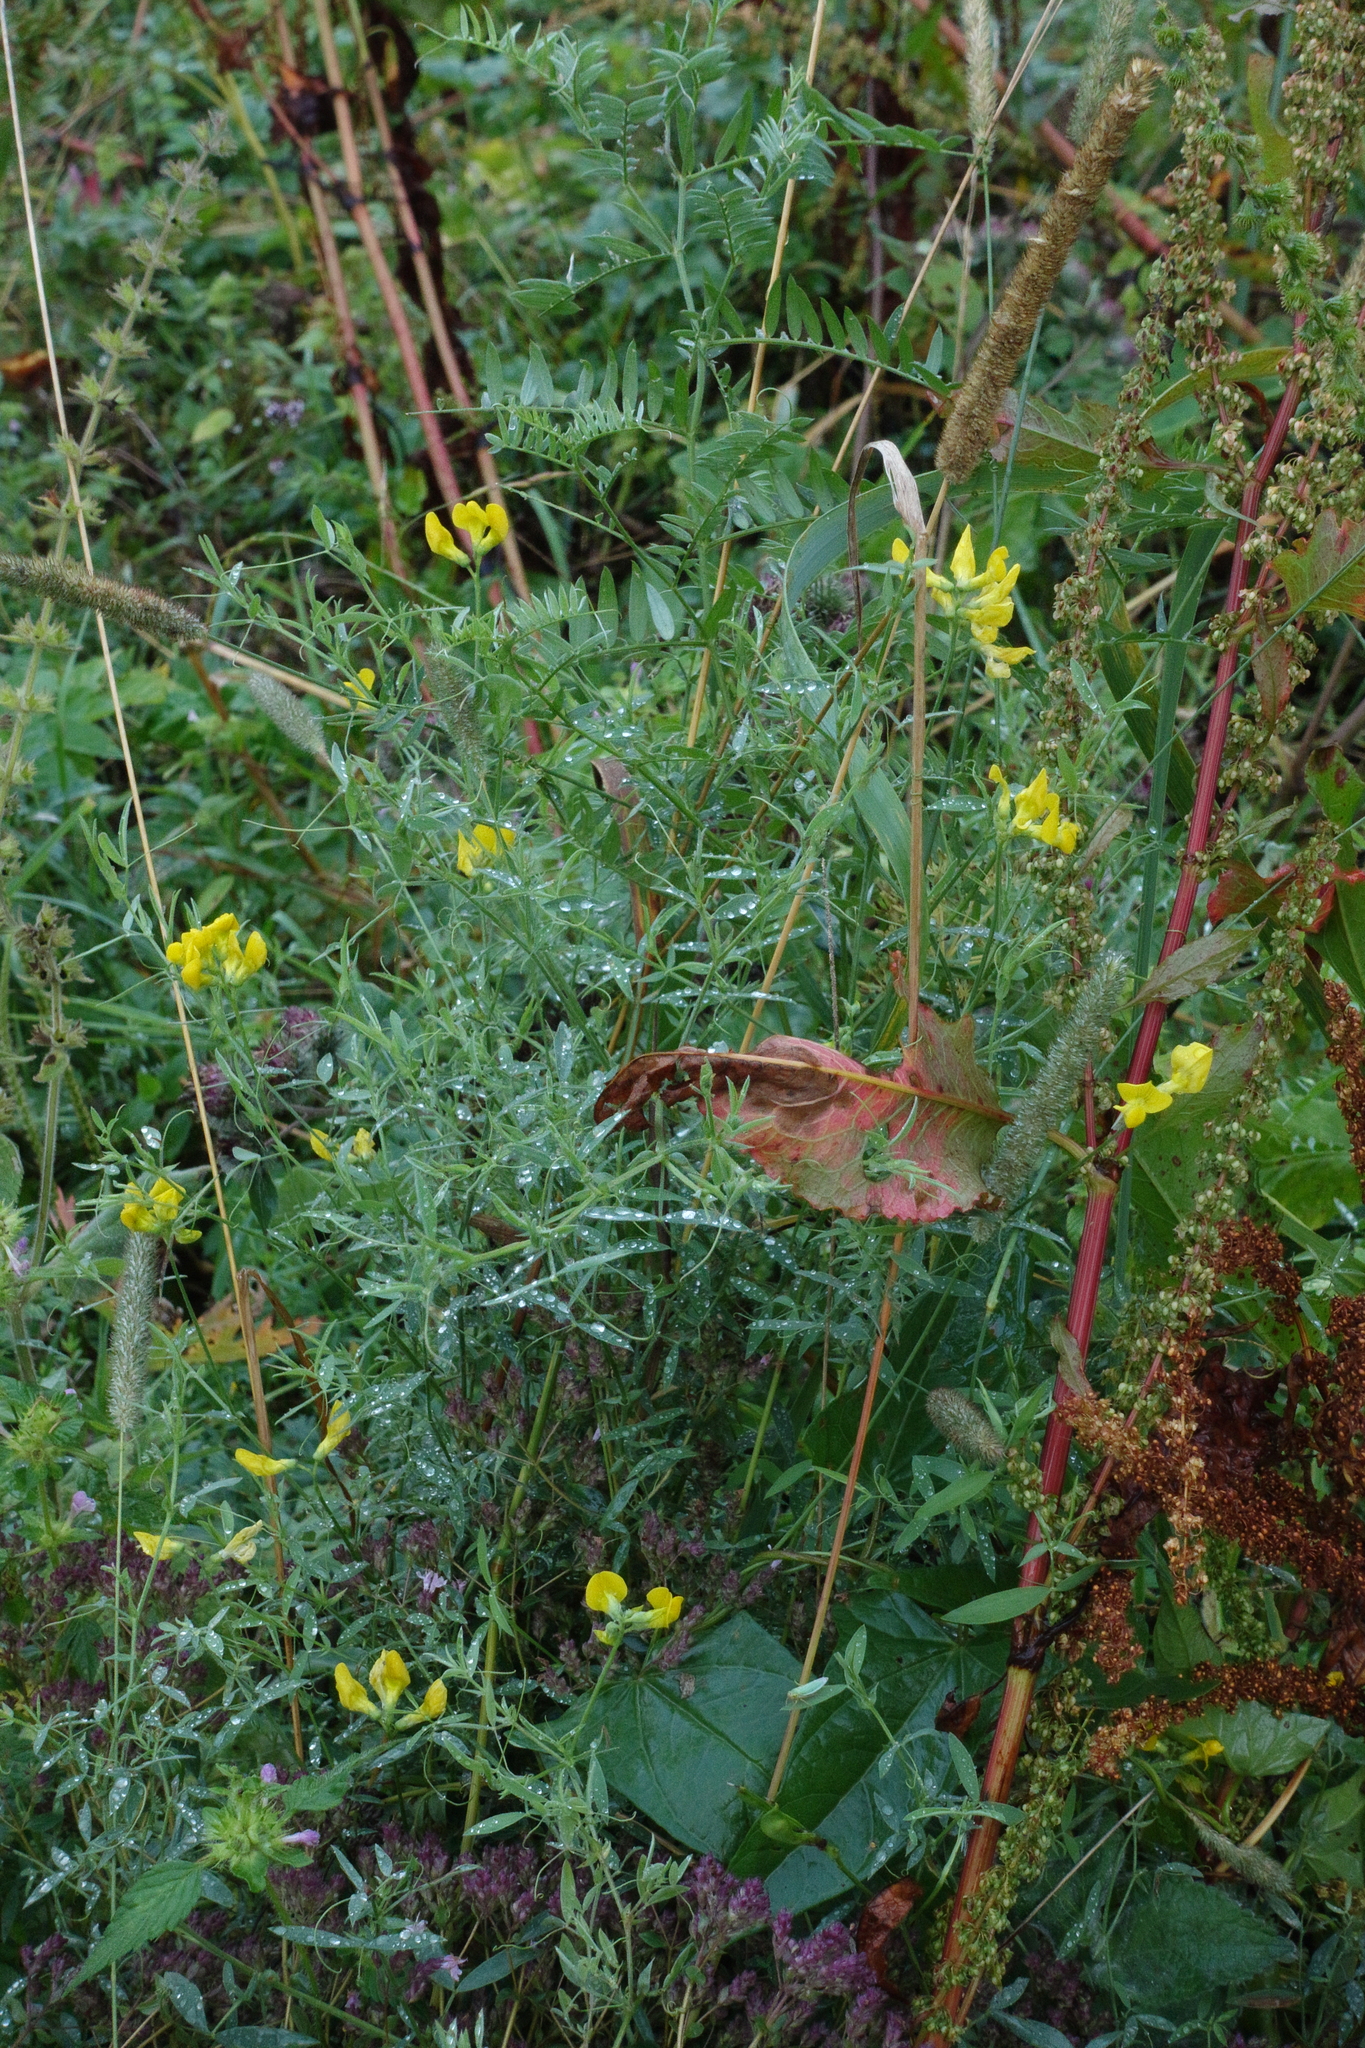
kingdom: Plantae
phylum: Tracheophyta
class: Magnoliopsida
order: Fabales
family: Fabaceae
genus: Lathyrus
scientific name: Lathyrus pratensis
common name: Meadow vetchling
